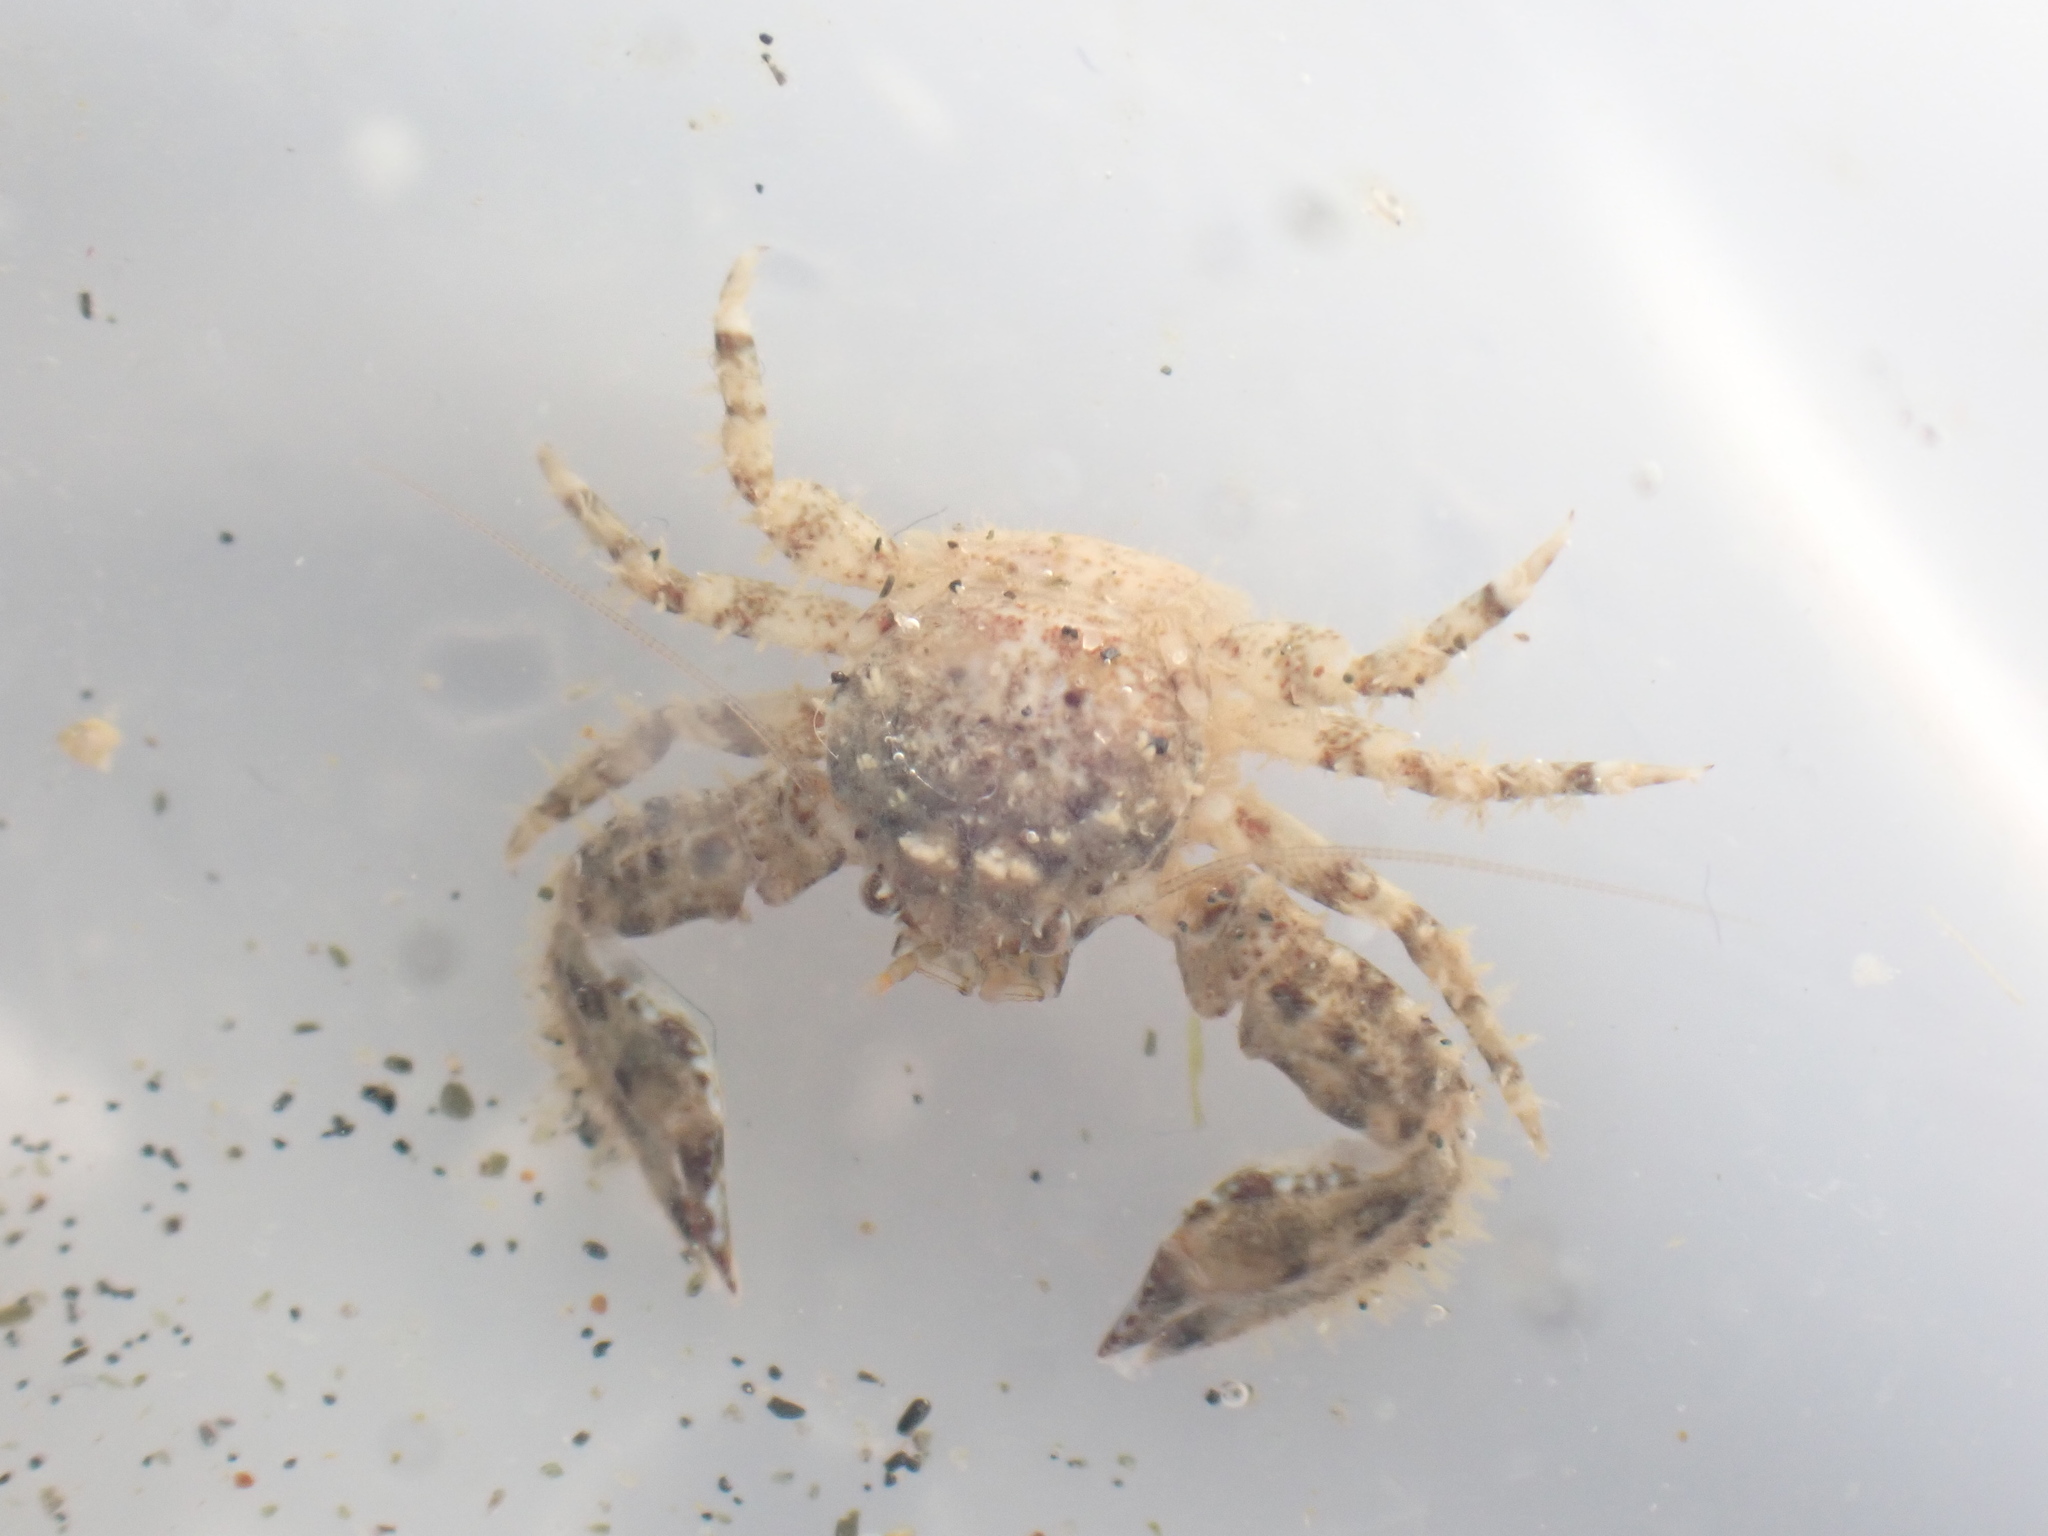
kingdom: Animalia
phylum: Arthropoda
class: Malacostraca
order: Decapoda
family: Porcellanidae
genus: Petrolisthes
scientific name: Petrolisthes novaezelandiae
